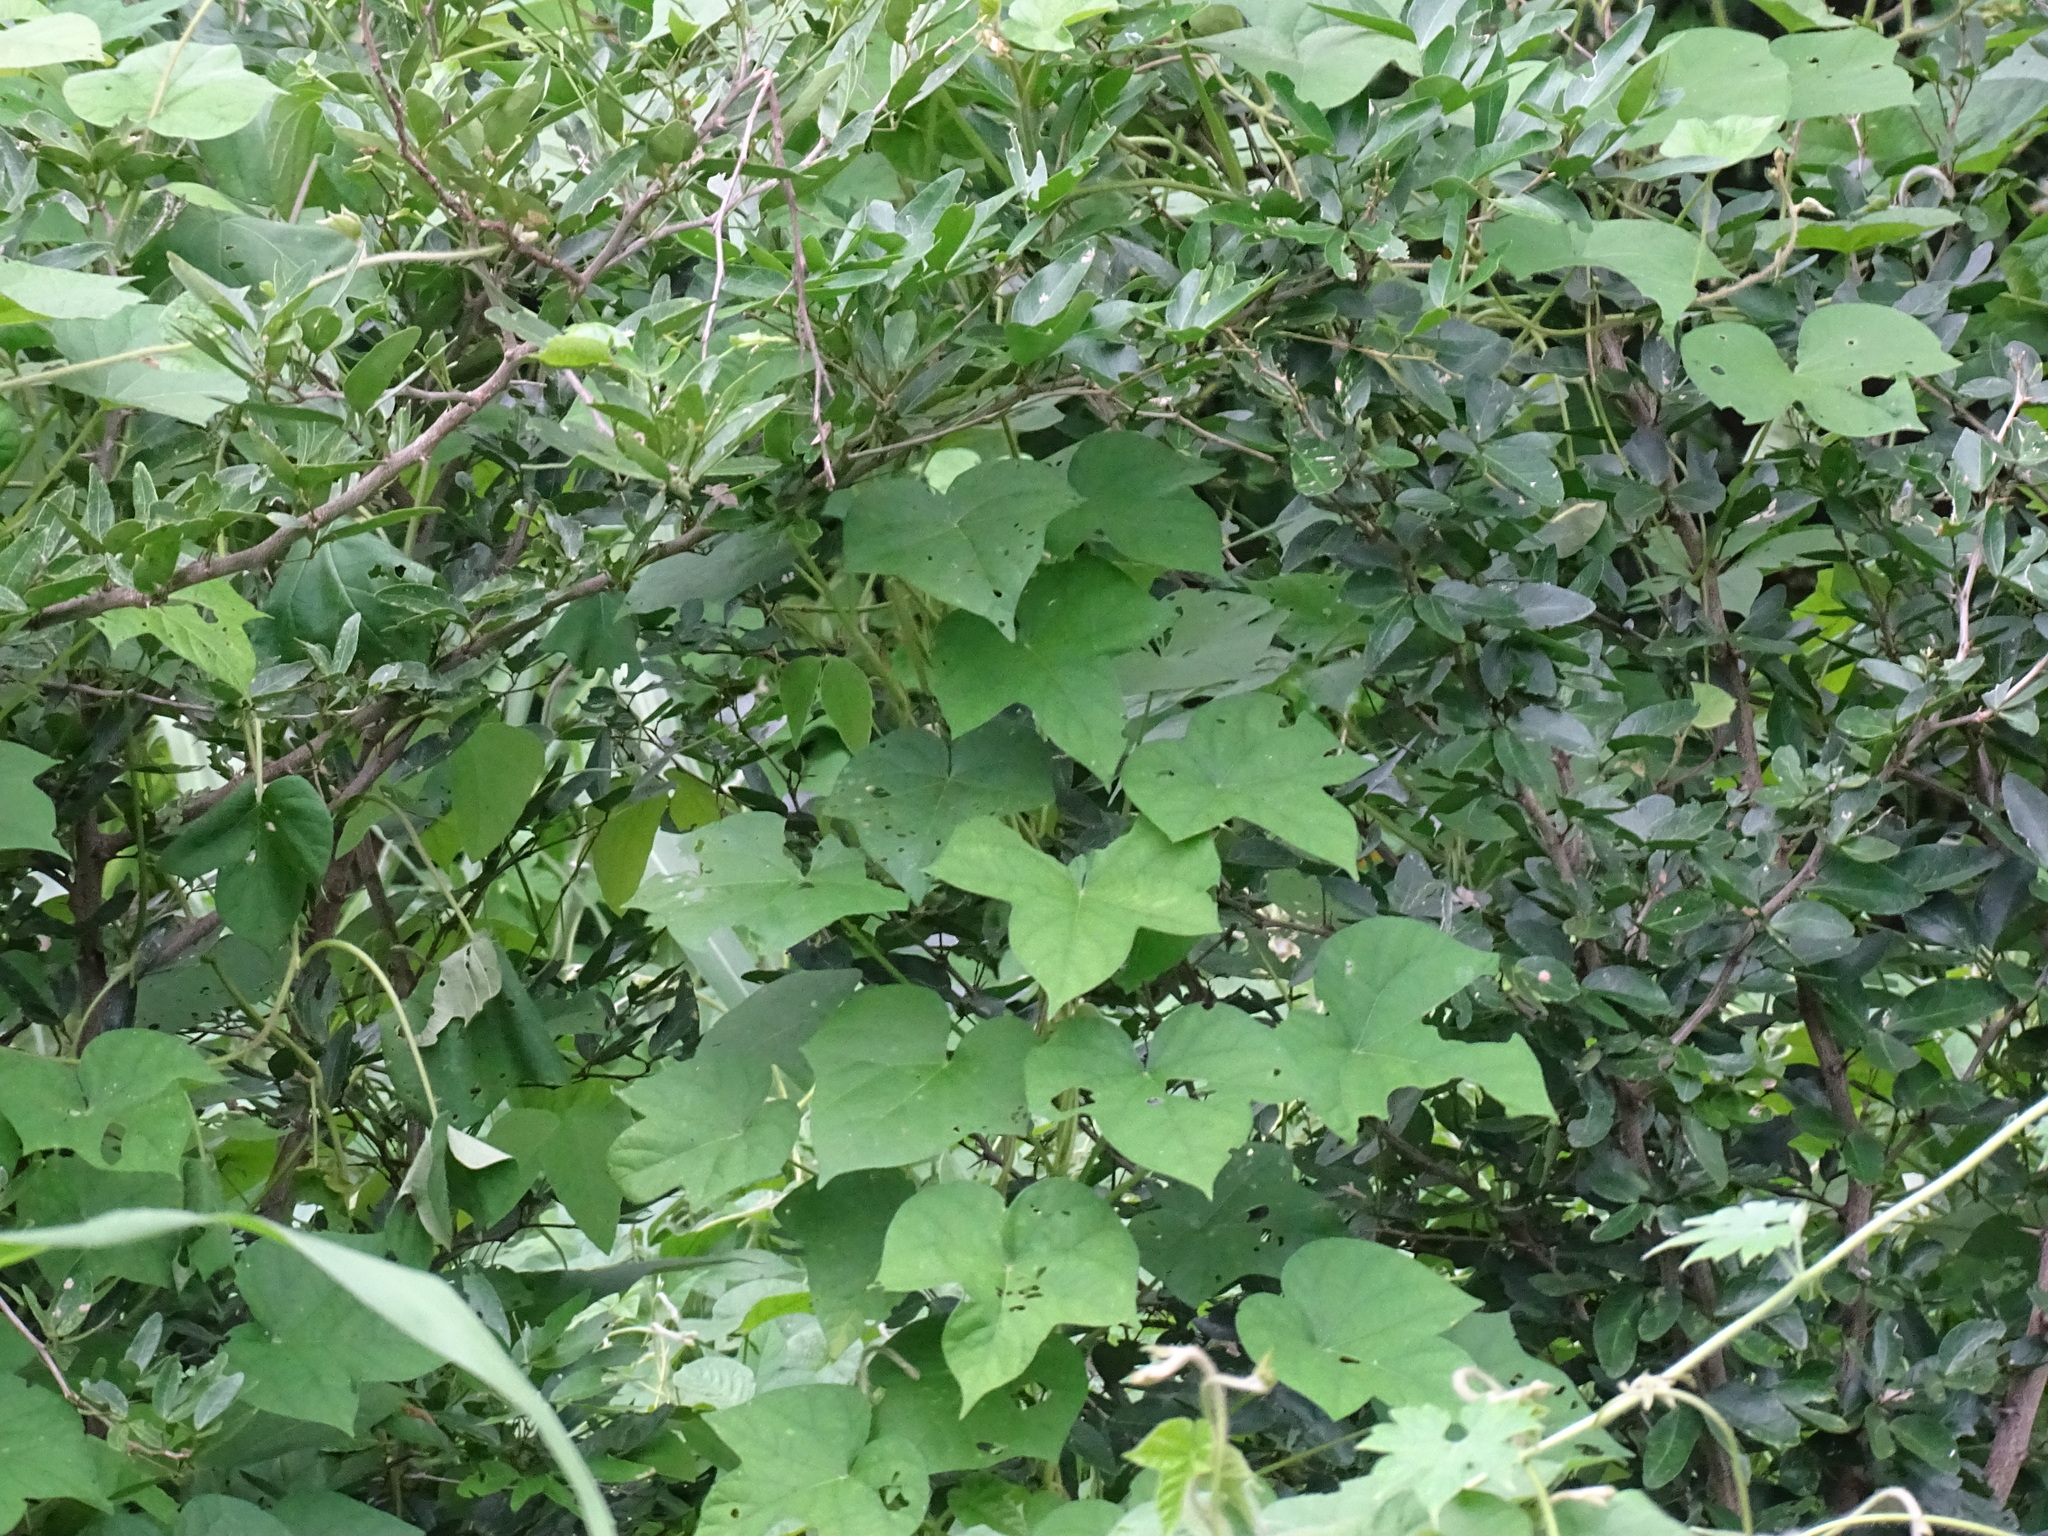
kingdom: Plantae
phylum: Tracheophyta
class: Magnoliopsida
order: Solanales
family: Convolvulaceae
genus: Ipomoea
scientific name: Ipomoea nil
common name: Japanese morning-glory
